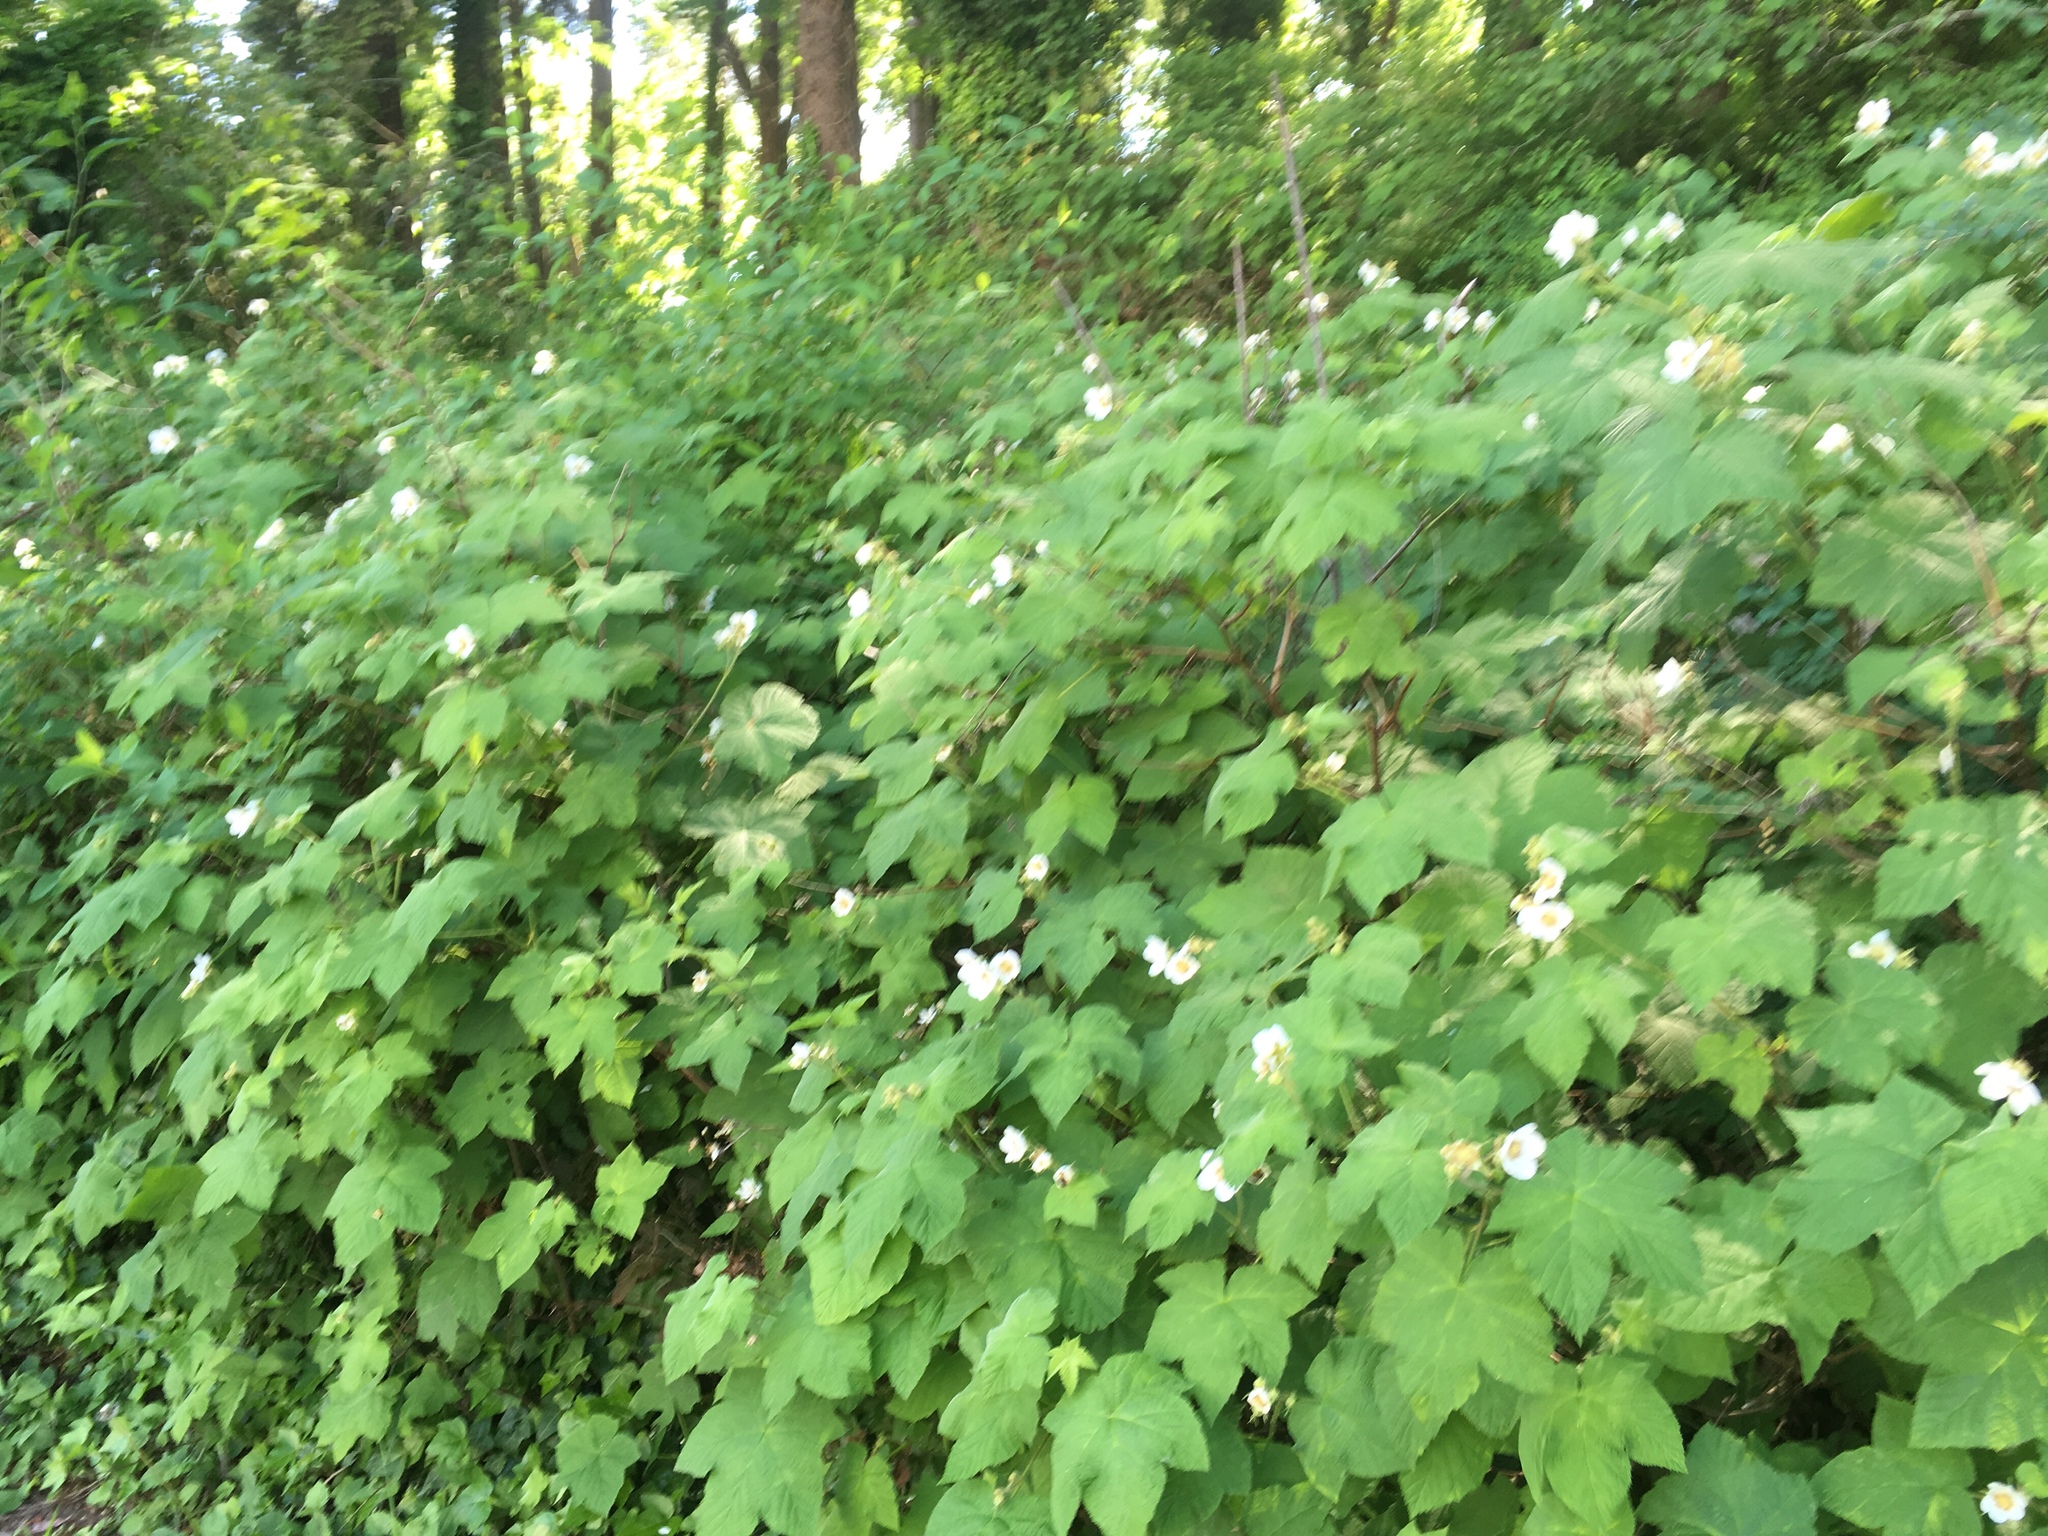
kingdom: Plantae
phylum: Tracheophyta
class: Magnoliopsida
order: Rosales
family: Rosaceae
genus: Rubus
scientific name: Rubus parviflorus
